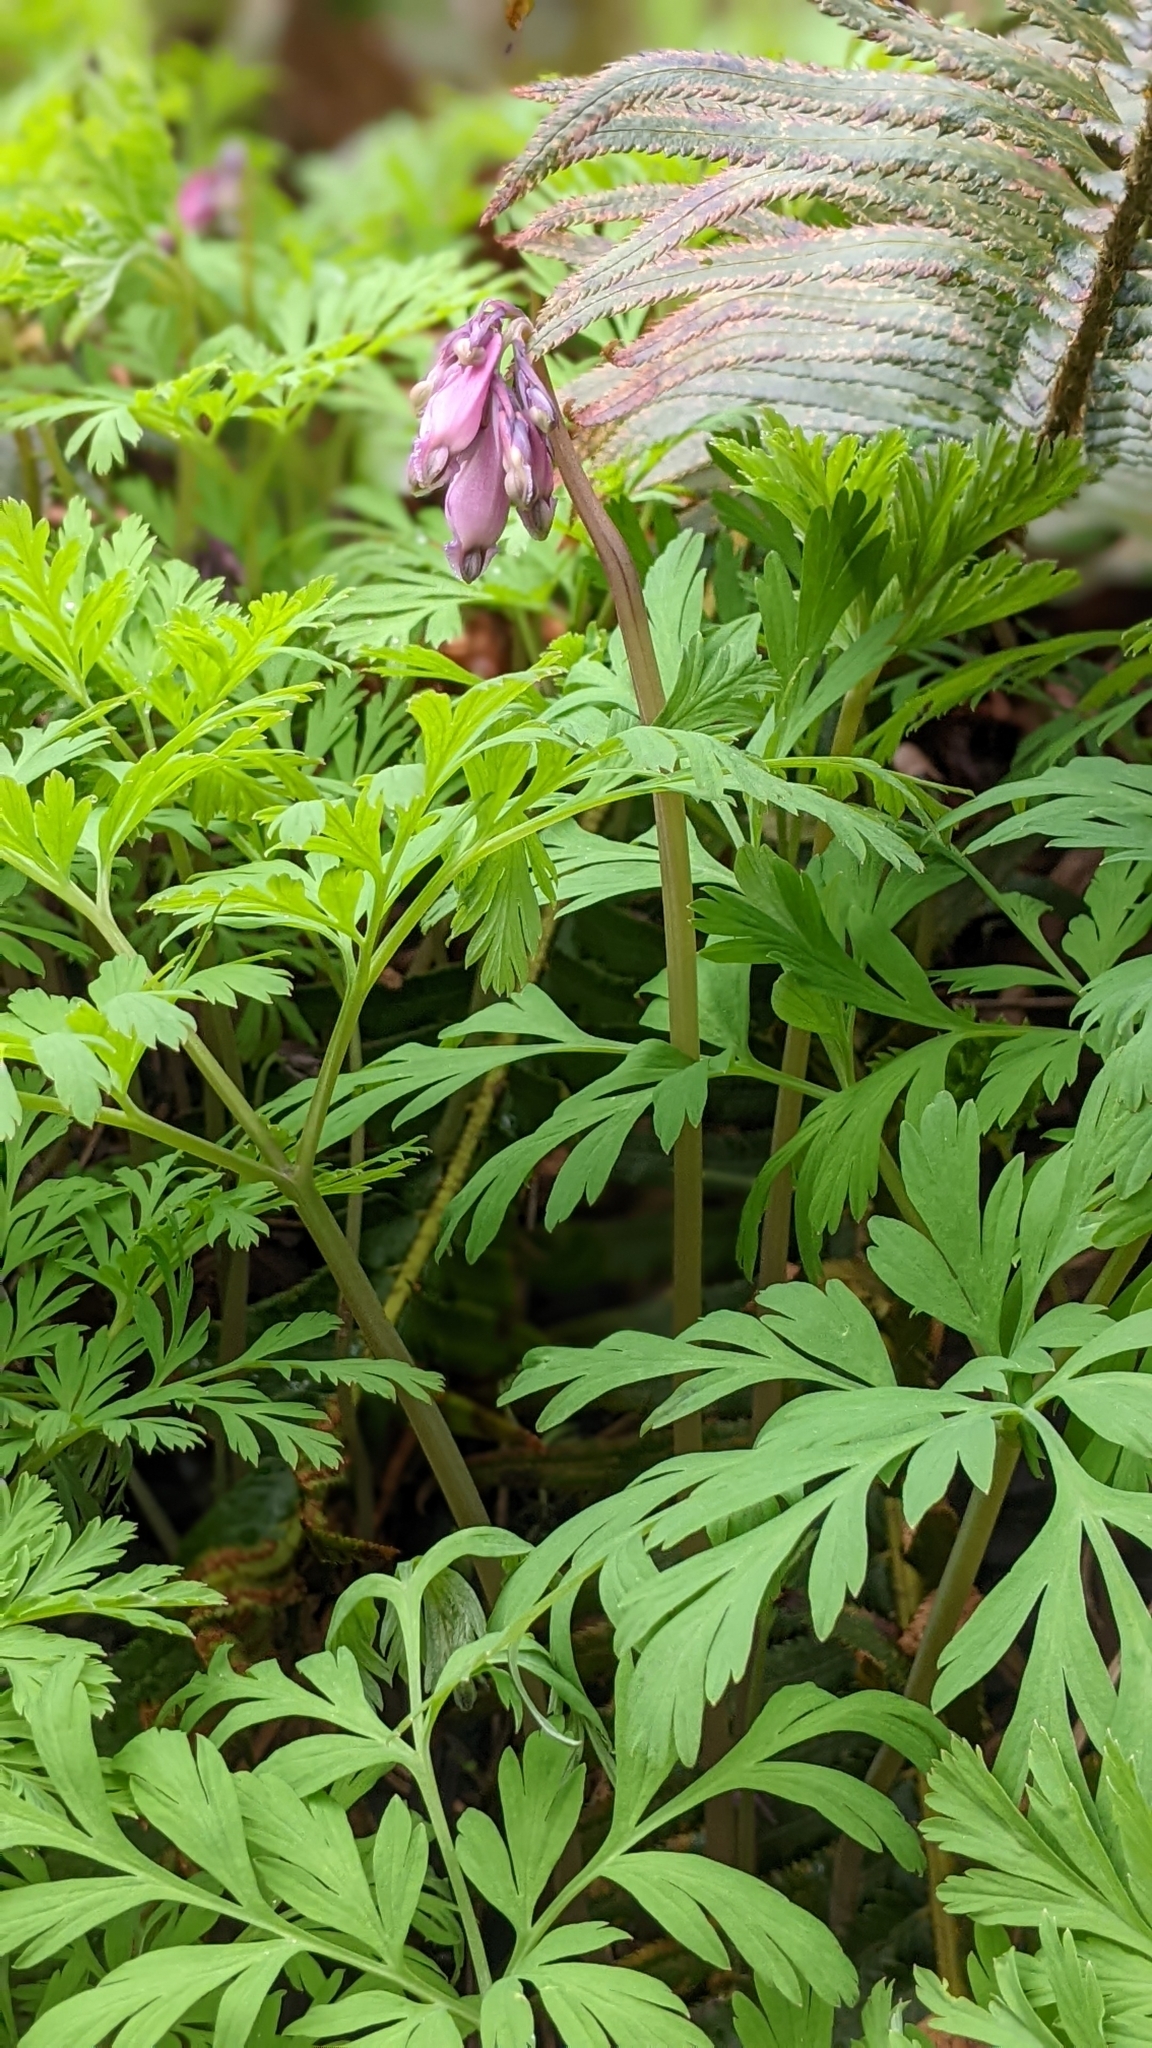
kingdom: Plantae
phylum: Tracheophyta
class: Magnoliopsida
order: Ranunculales
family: Papaveraceae
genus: Dicentra
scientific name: Dicentra formosa
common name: Bleeding-heart
